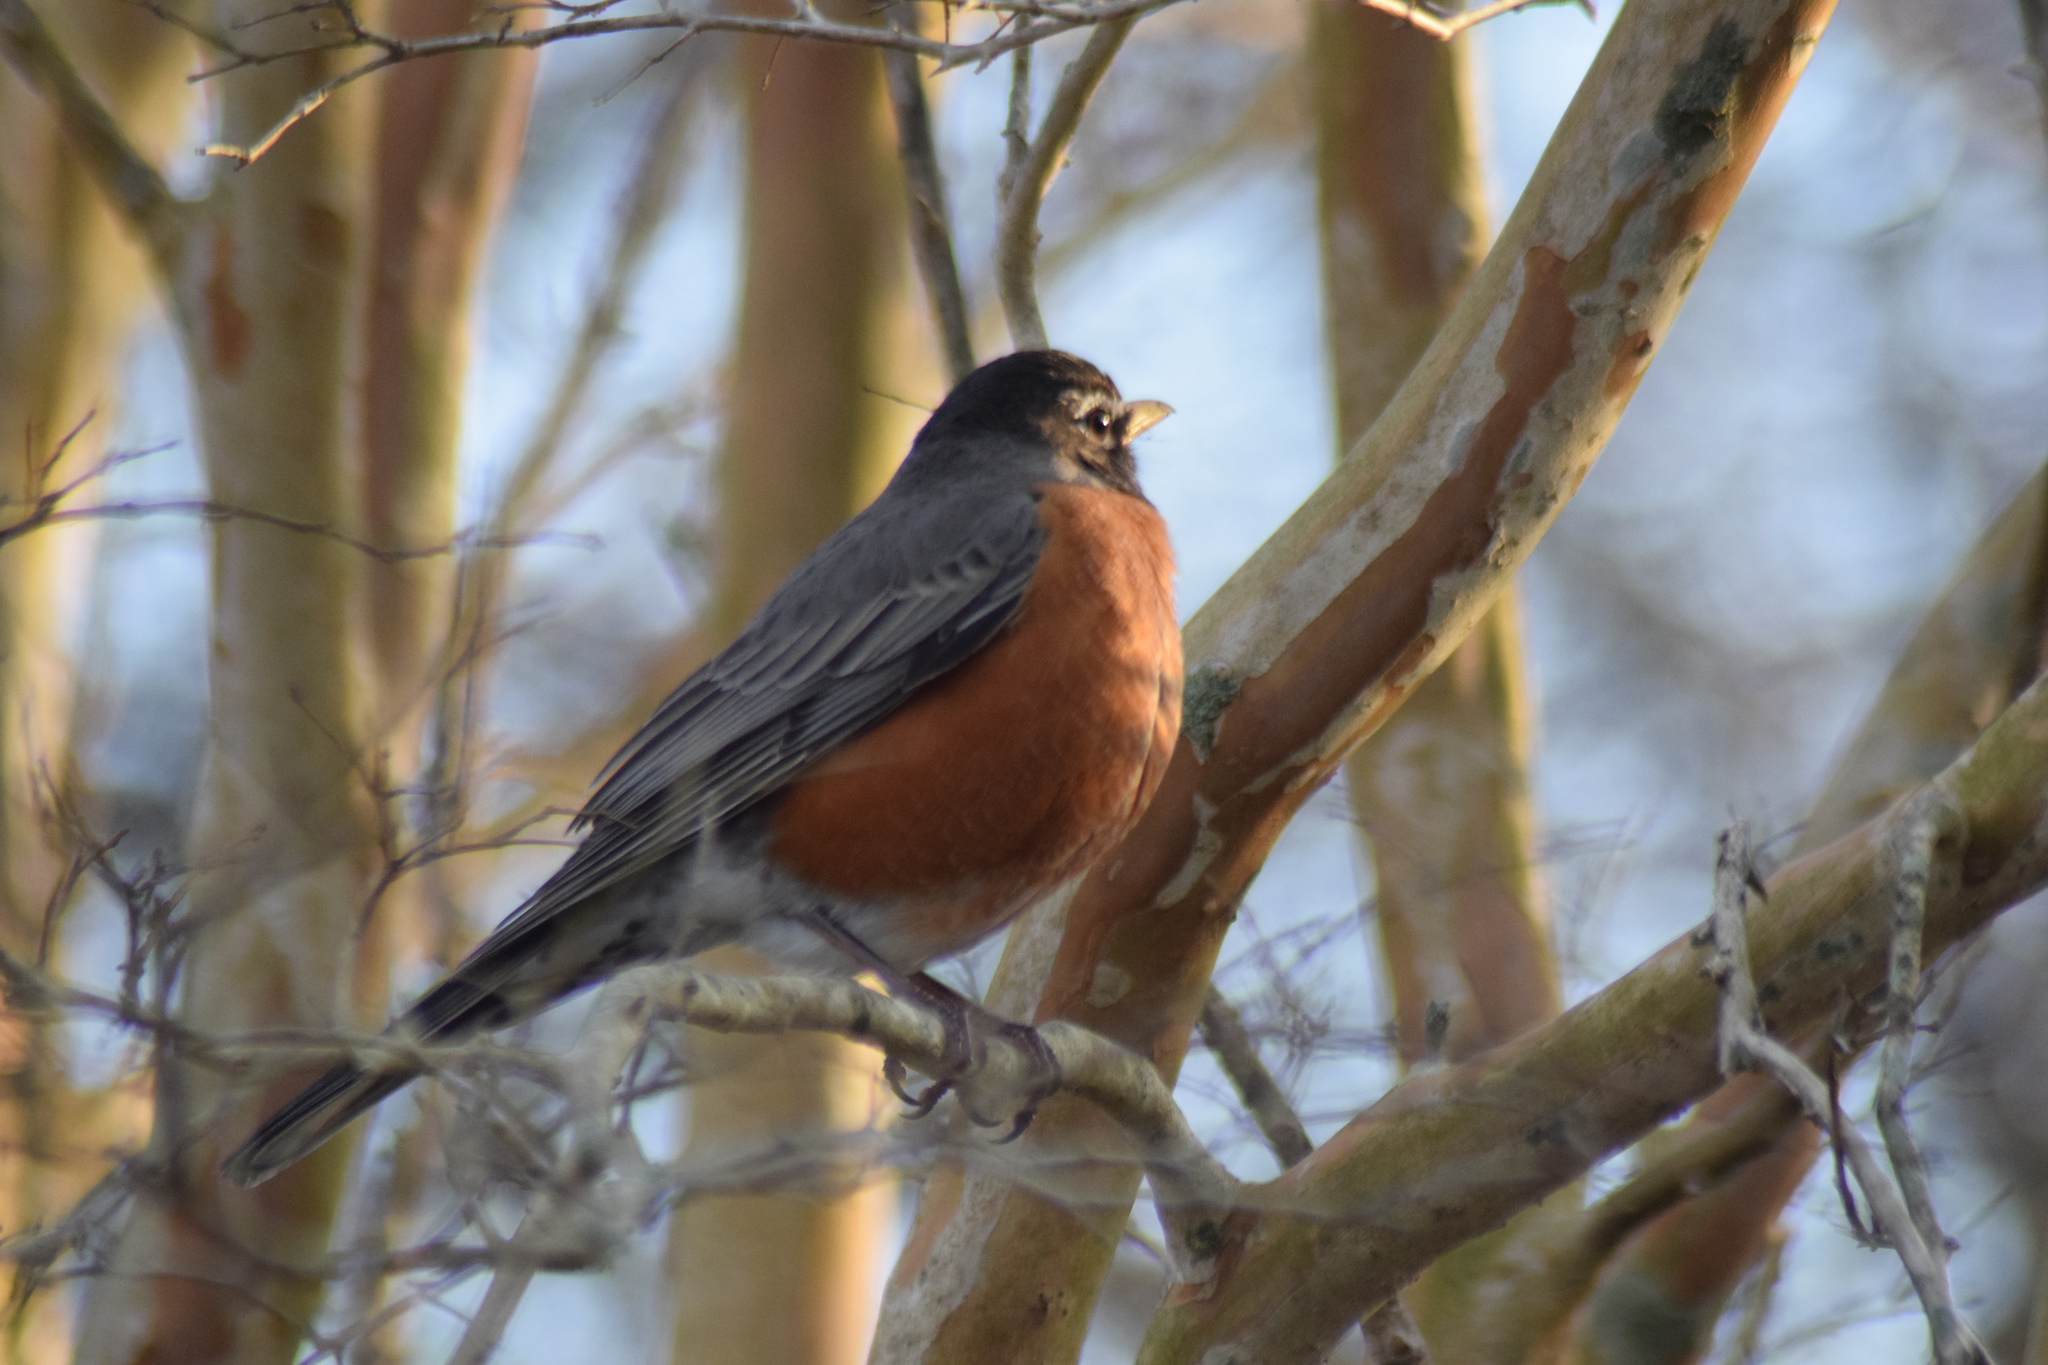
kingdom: Animalia
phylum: Chordata
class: Aves
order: Passeriformes
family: Turdidae
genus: Turdus
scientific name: Turdus migratorius
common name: American robin
